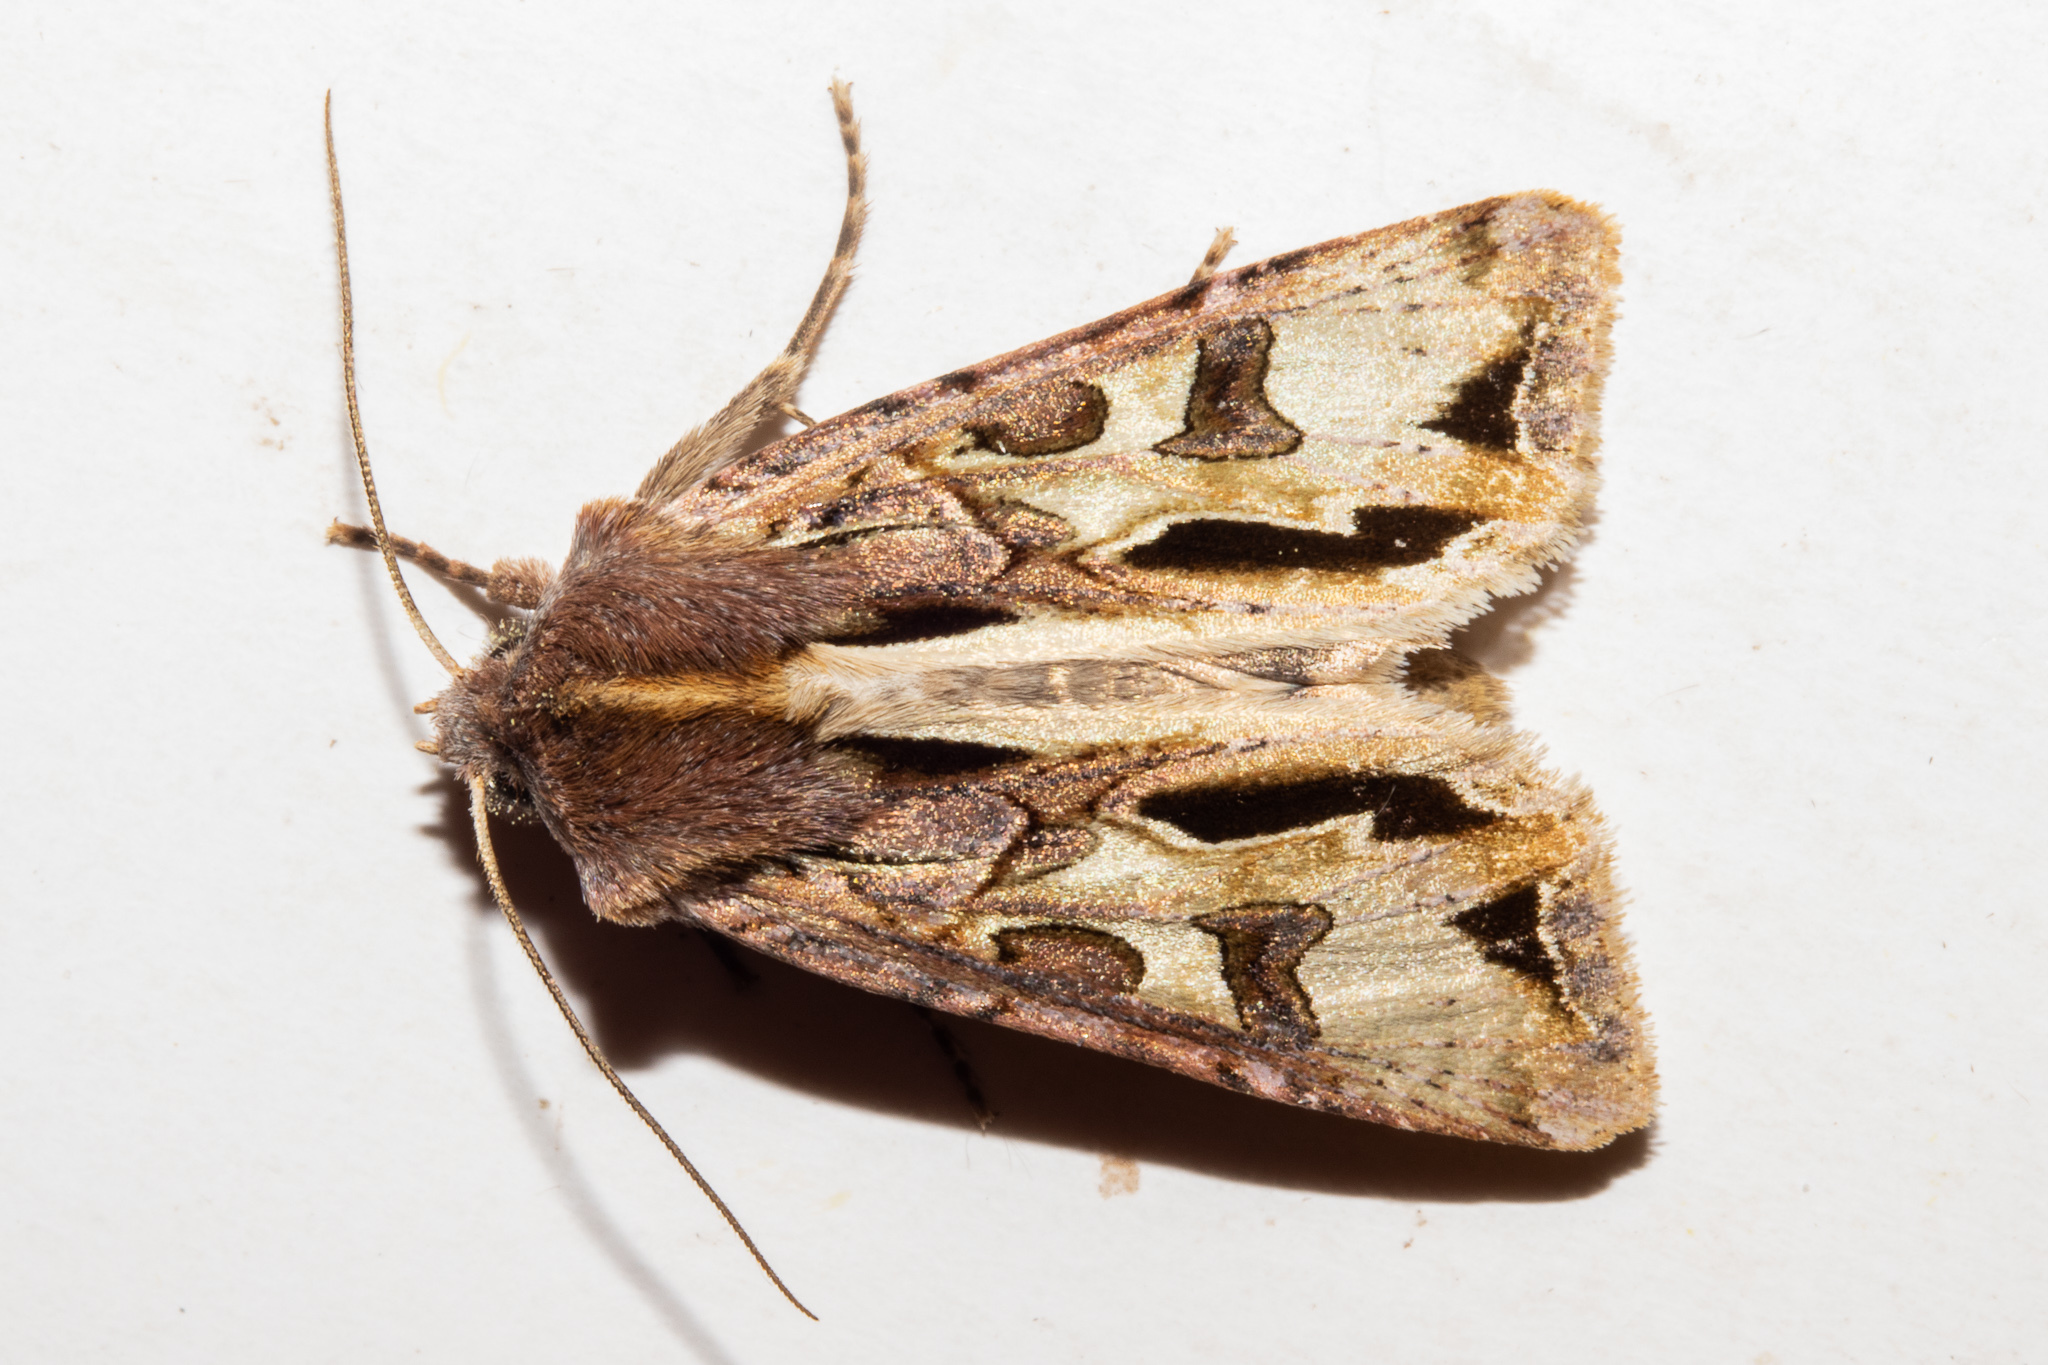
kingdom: Animalia
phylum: Arthropoda
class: Insecta
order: Lepidoptera
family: Noctuidae
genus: Ichneutica
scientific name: Ichneutica
